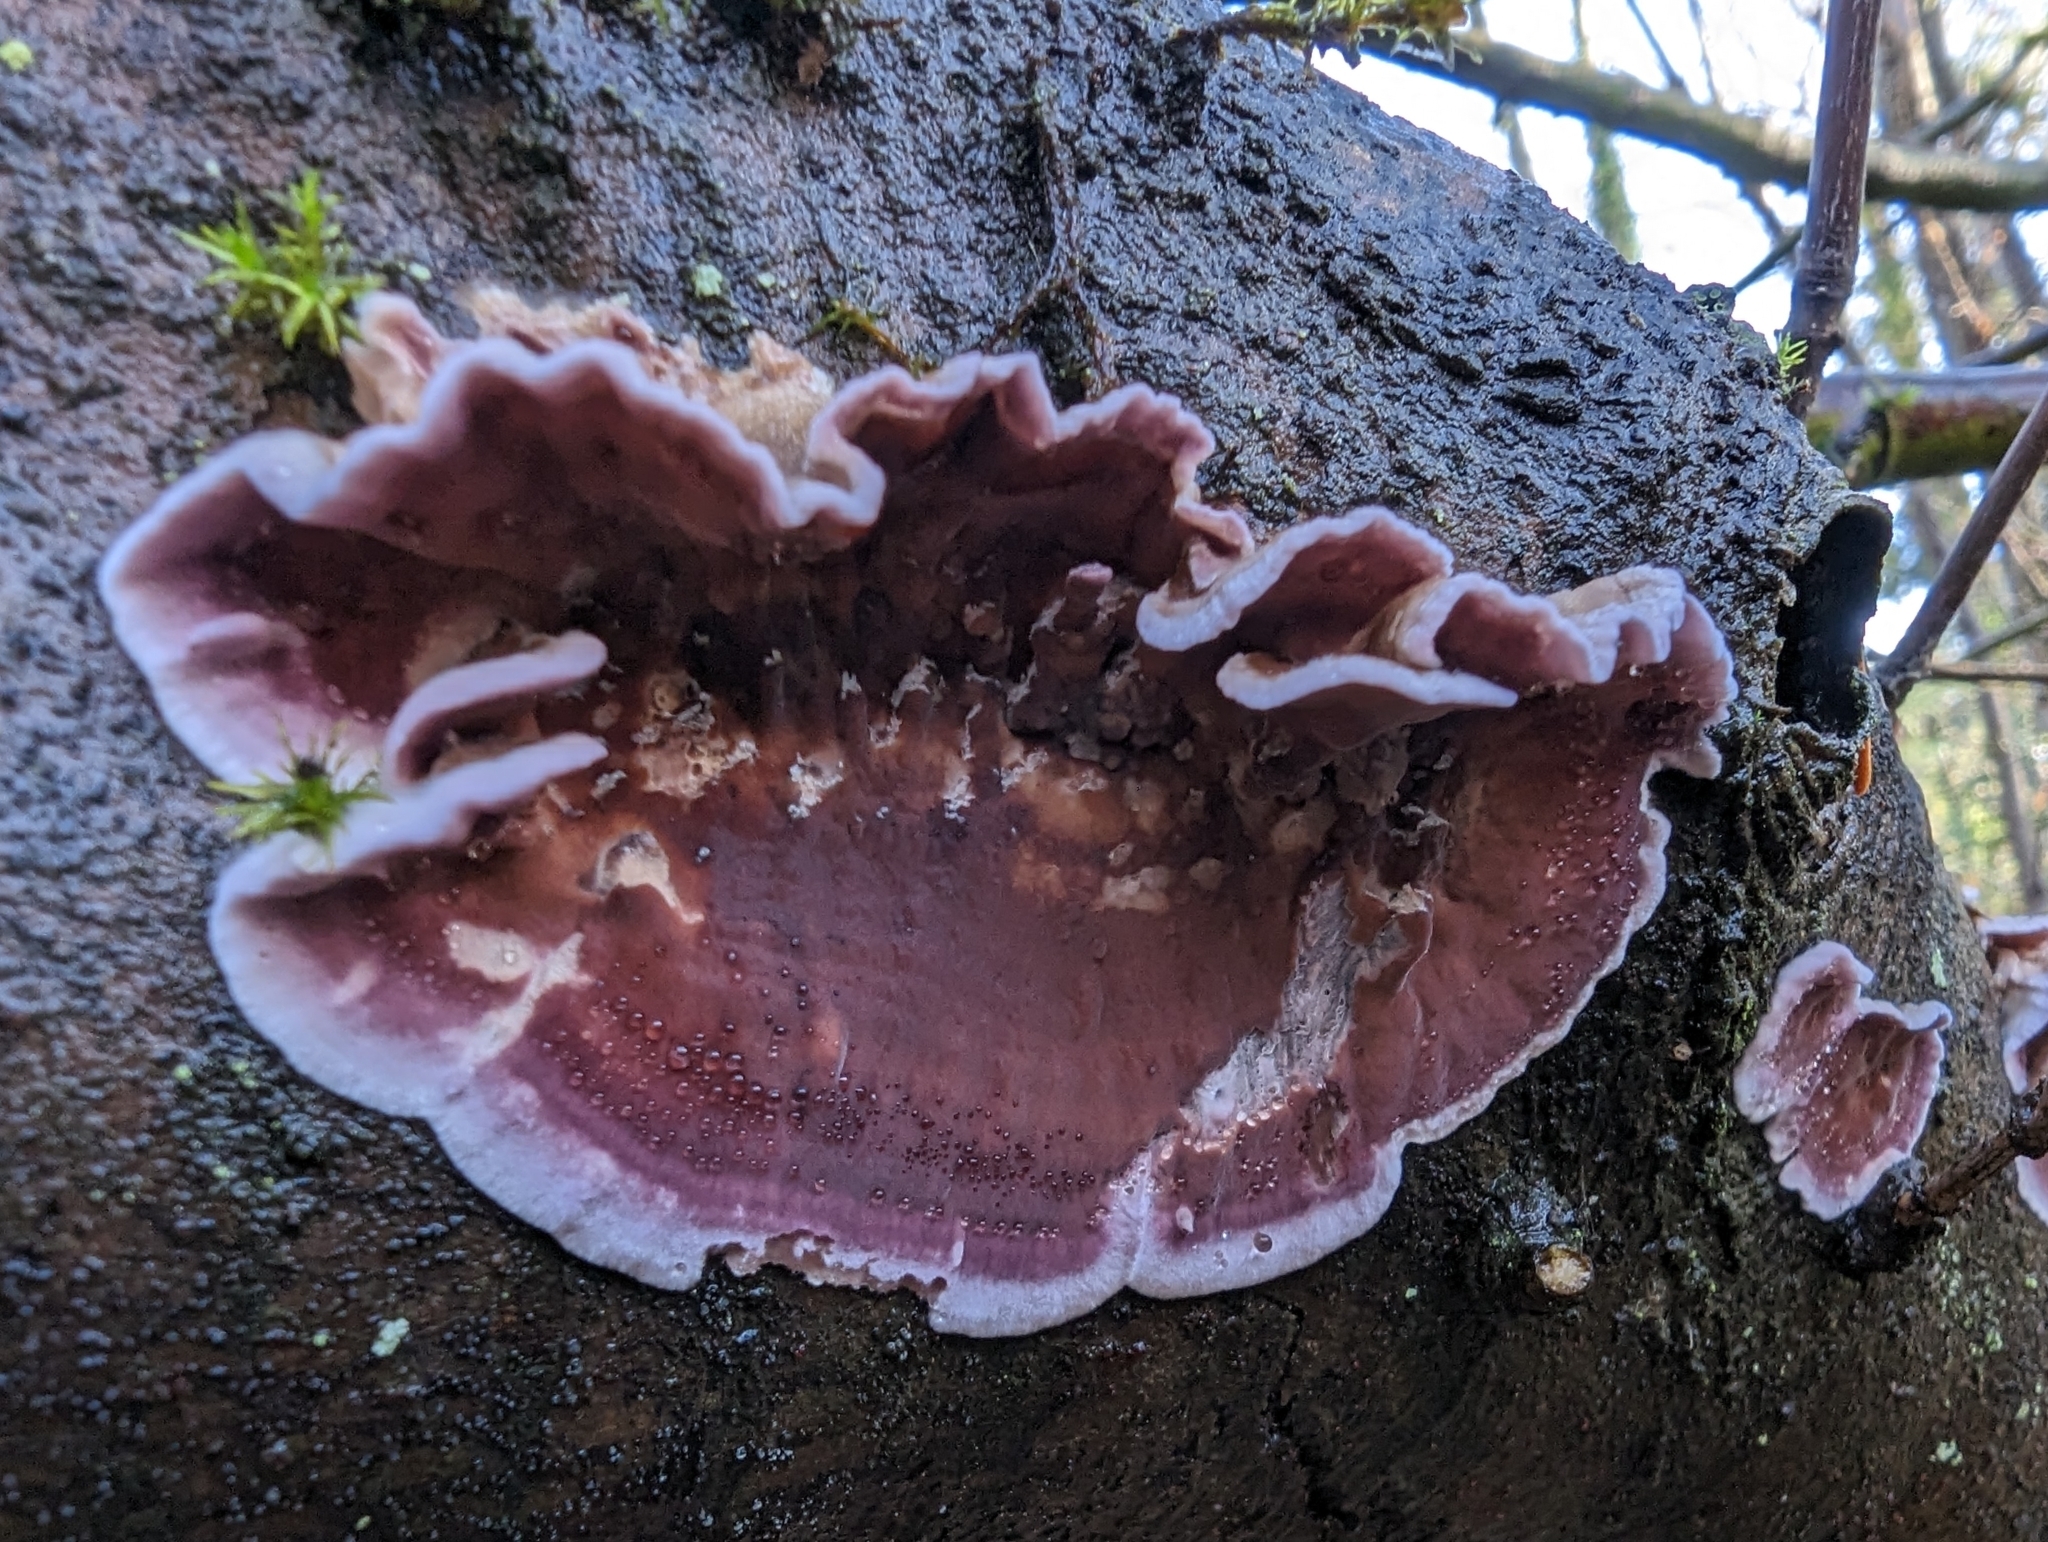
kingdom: Fungi
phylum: Basidiomycota
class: Agaricomycetes
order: Agaricales
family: Cyphellaceae
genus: Chondrostereum
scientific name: Chondrostereum purpureum
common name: Silver leaf disease
